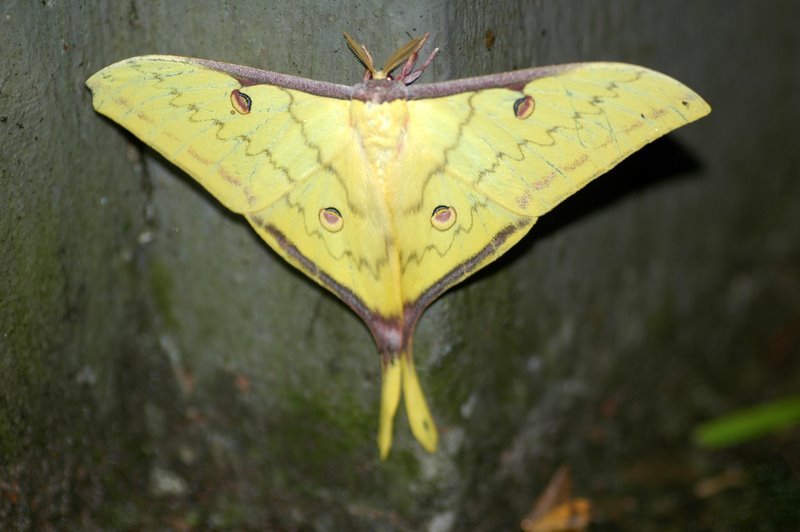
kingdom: Animalia
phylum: Arthropoda
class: Insecta
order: Lepidoptera
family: Saturniidae
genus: Actias
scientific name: Actias parasinensis
